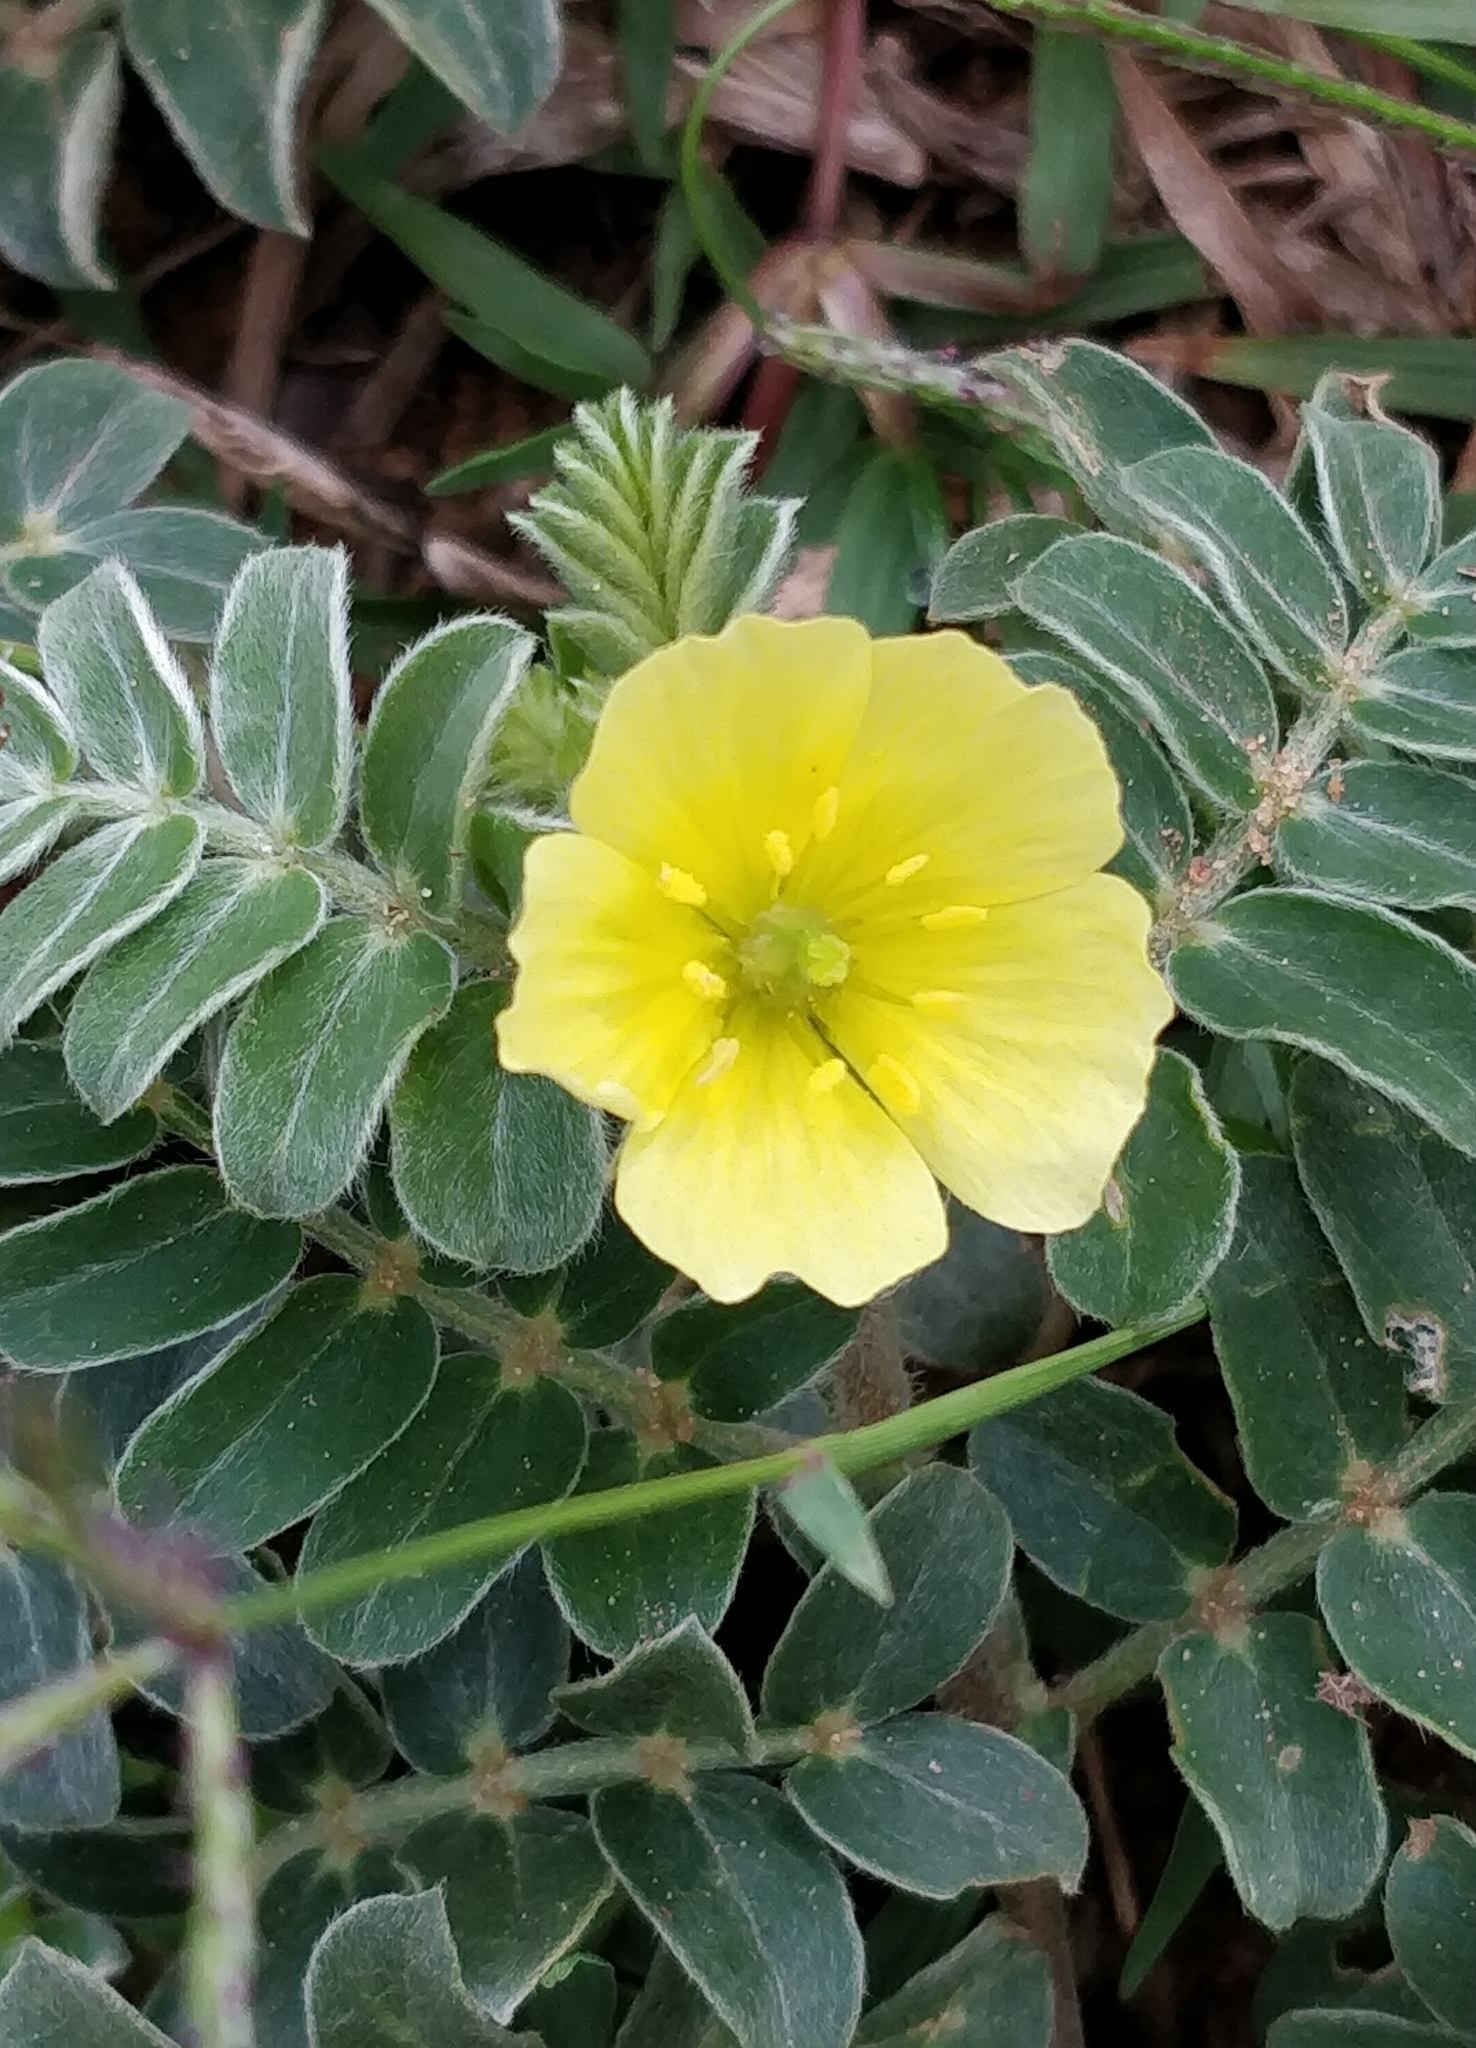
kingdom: Plantae
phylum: Tracheophyta
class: Magnoliopsida
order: Zygophyllales
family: Zygophyllaceae
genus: Tribulus
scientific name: Tribulus terrestris
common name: Puncturevine
